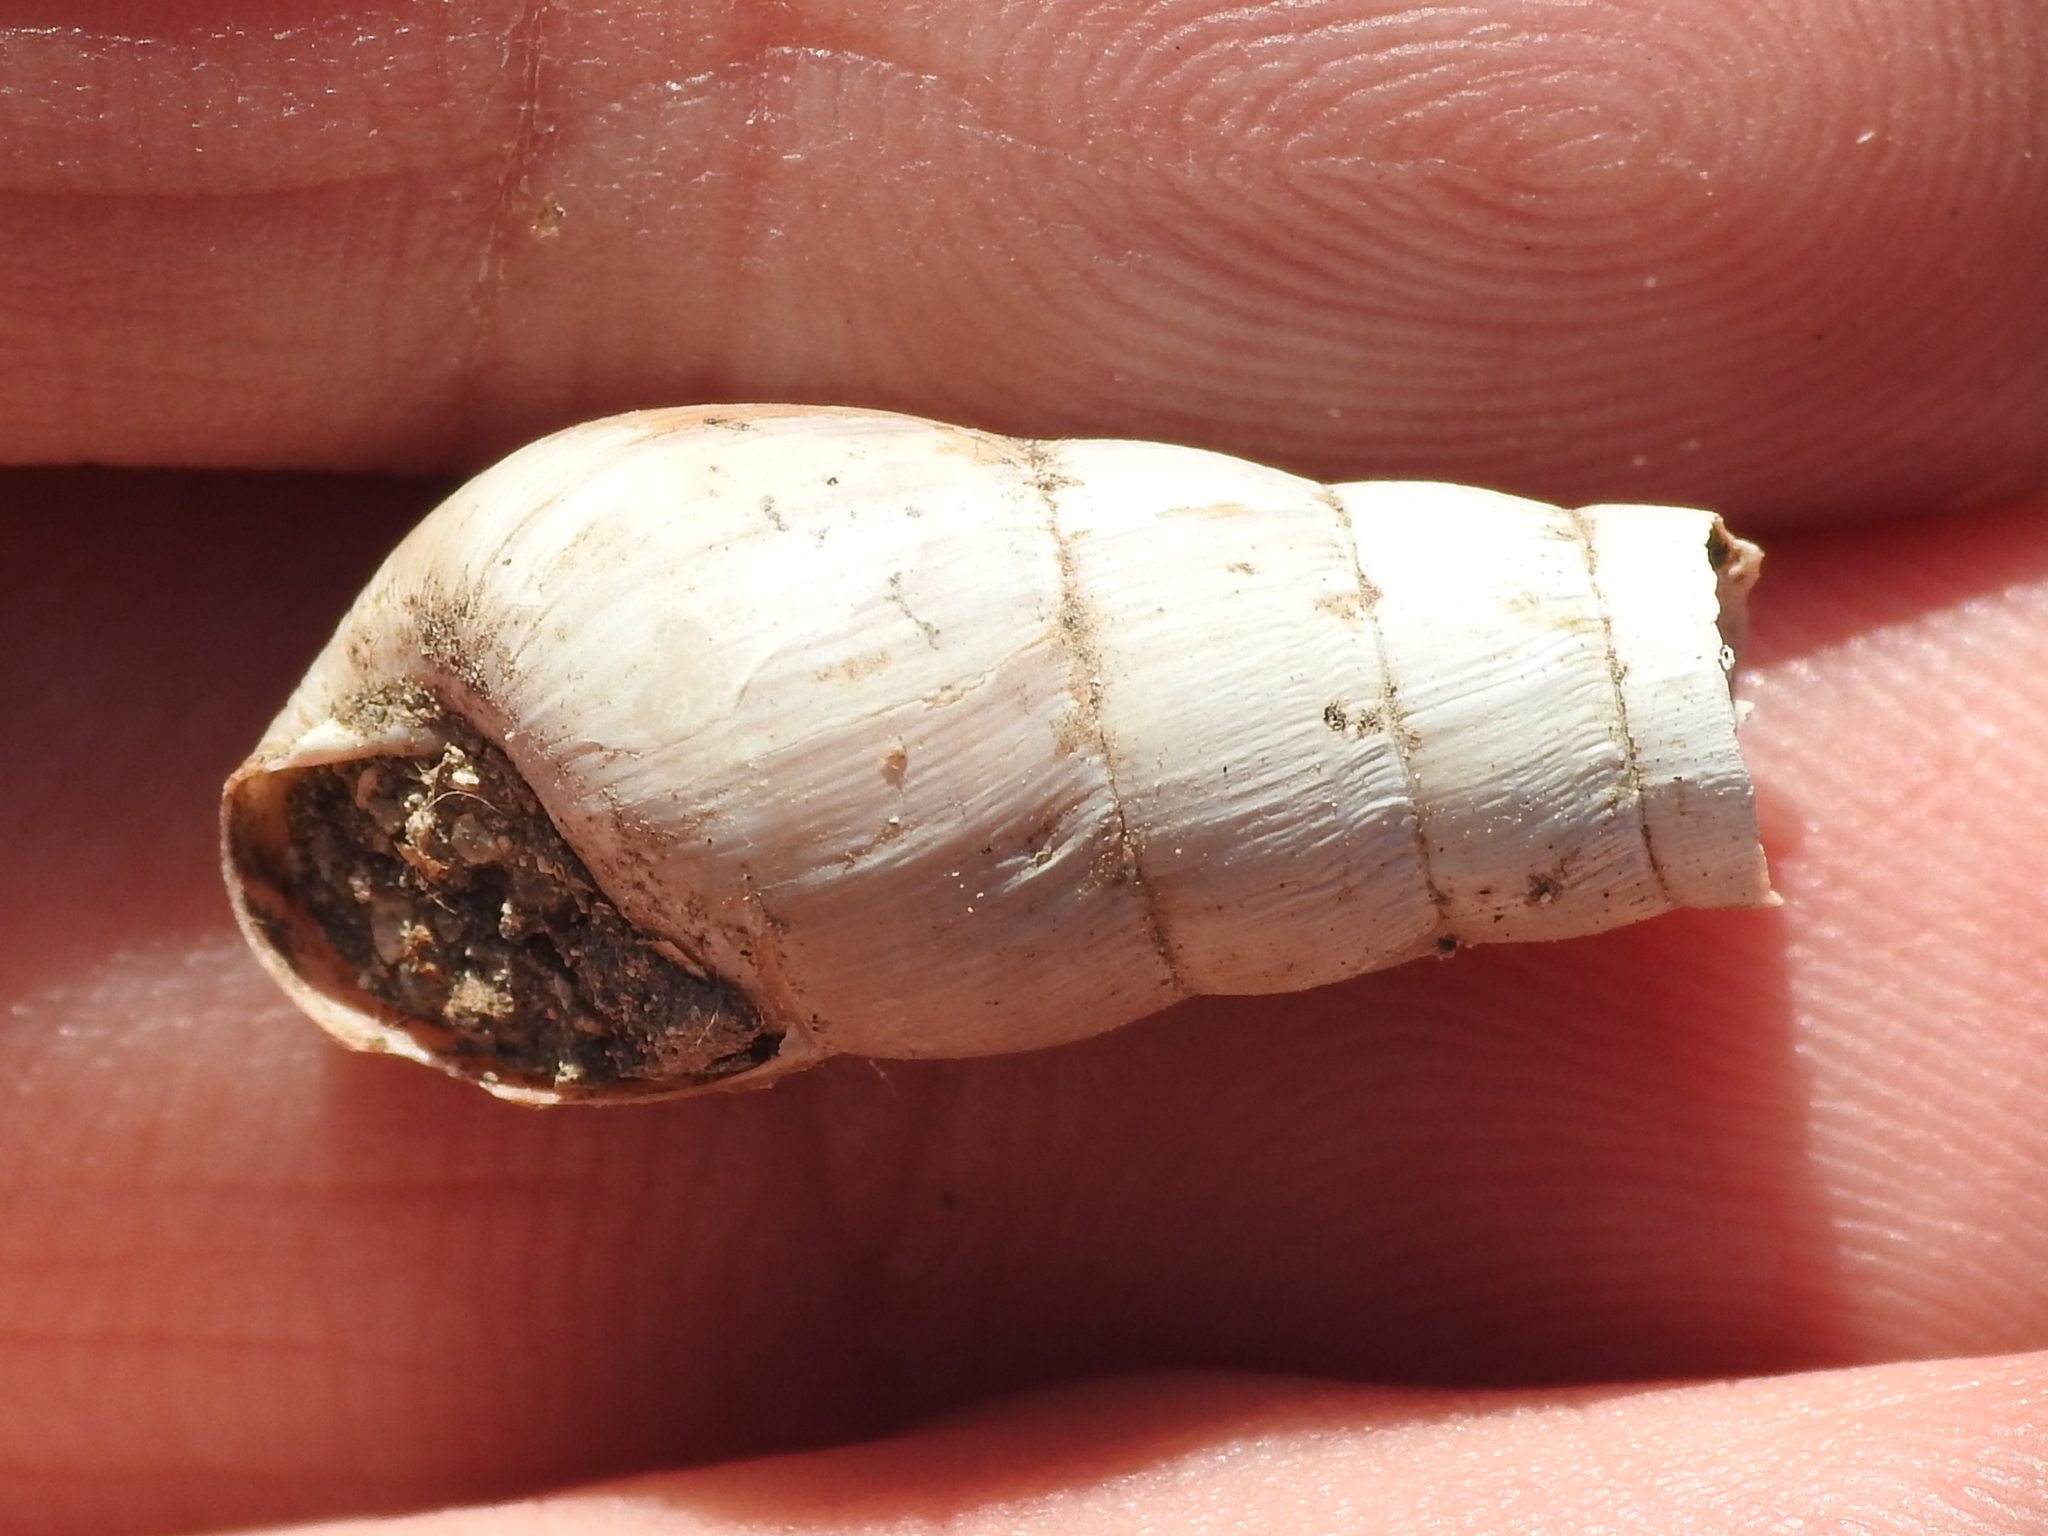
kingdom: Animalia
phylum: Mollusca
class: Gastropoda
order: Stylommatophora
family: Achatinidae
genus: Rumina
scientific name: Rumina decollata
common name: Decollate snail
